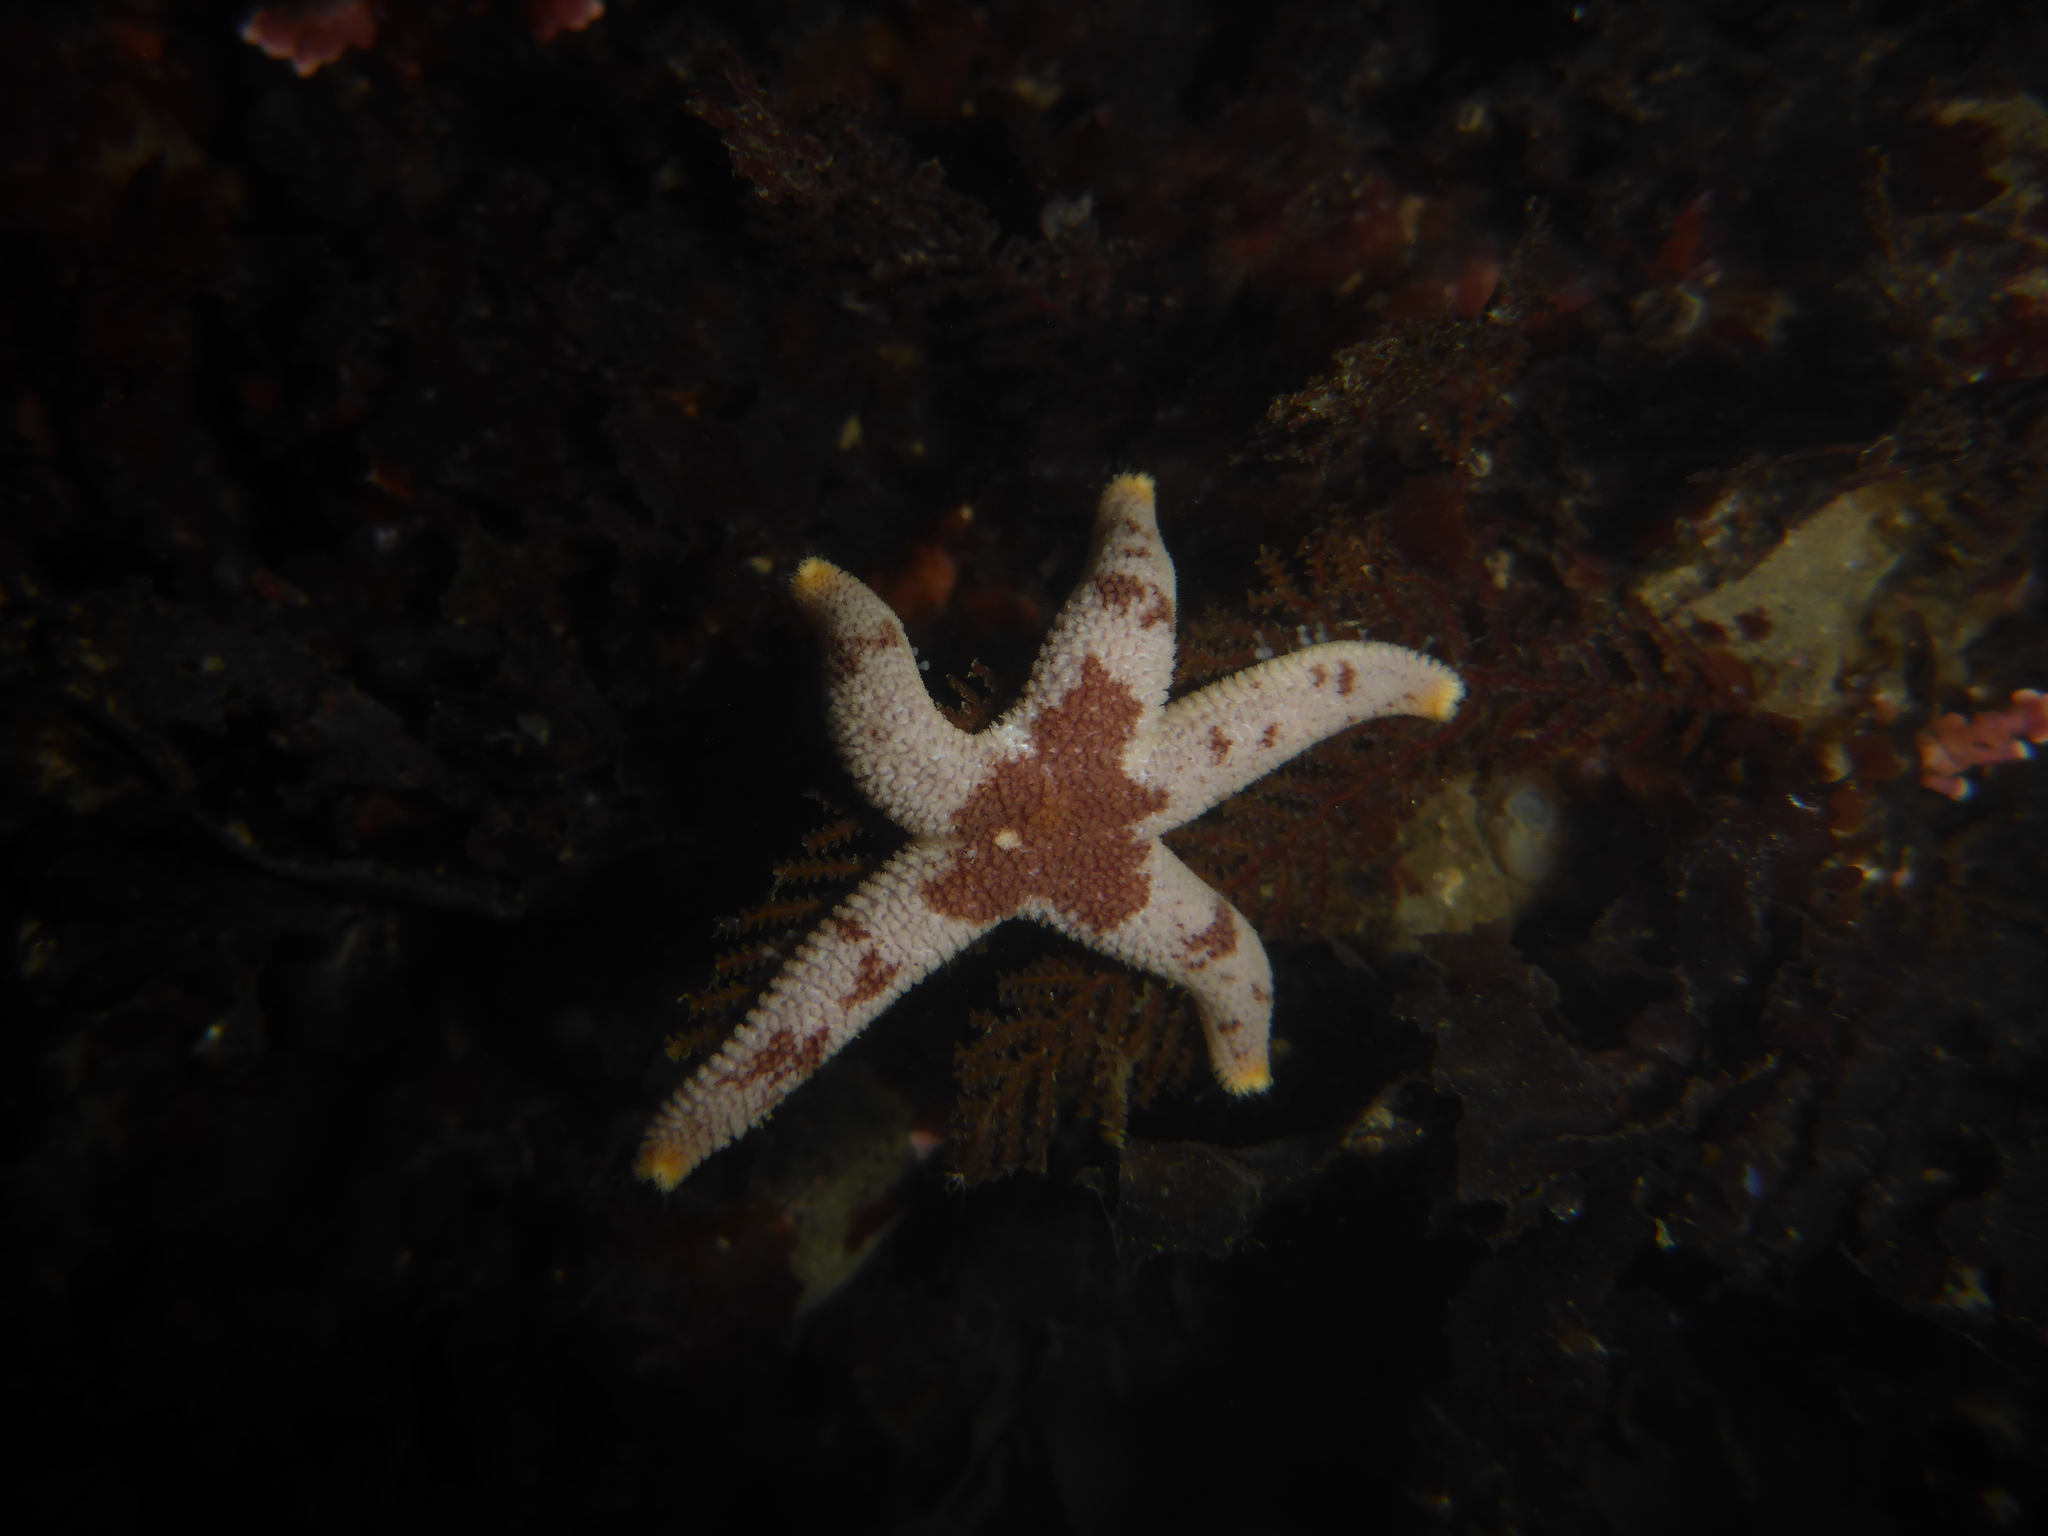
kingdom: Animalia
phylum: Echinodermata
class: Asteroidea
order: Spinulosida
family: Echinasteridae
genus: Henricia
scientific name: Henricia pumila
